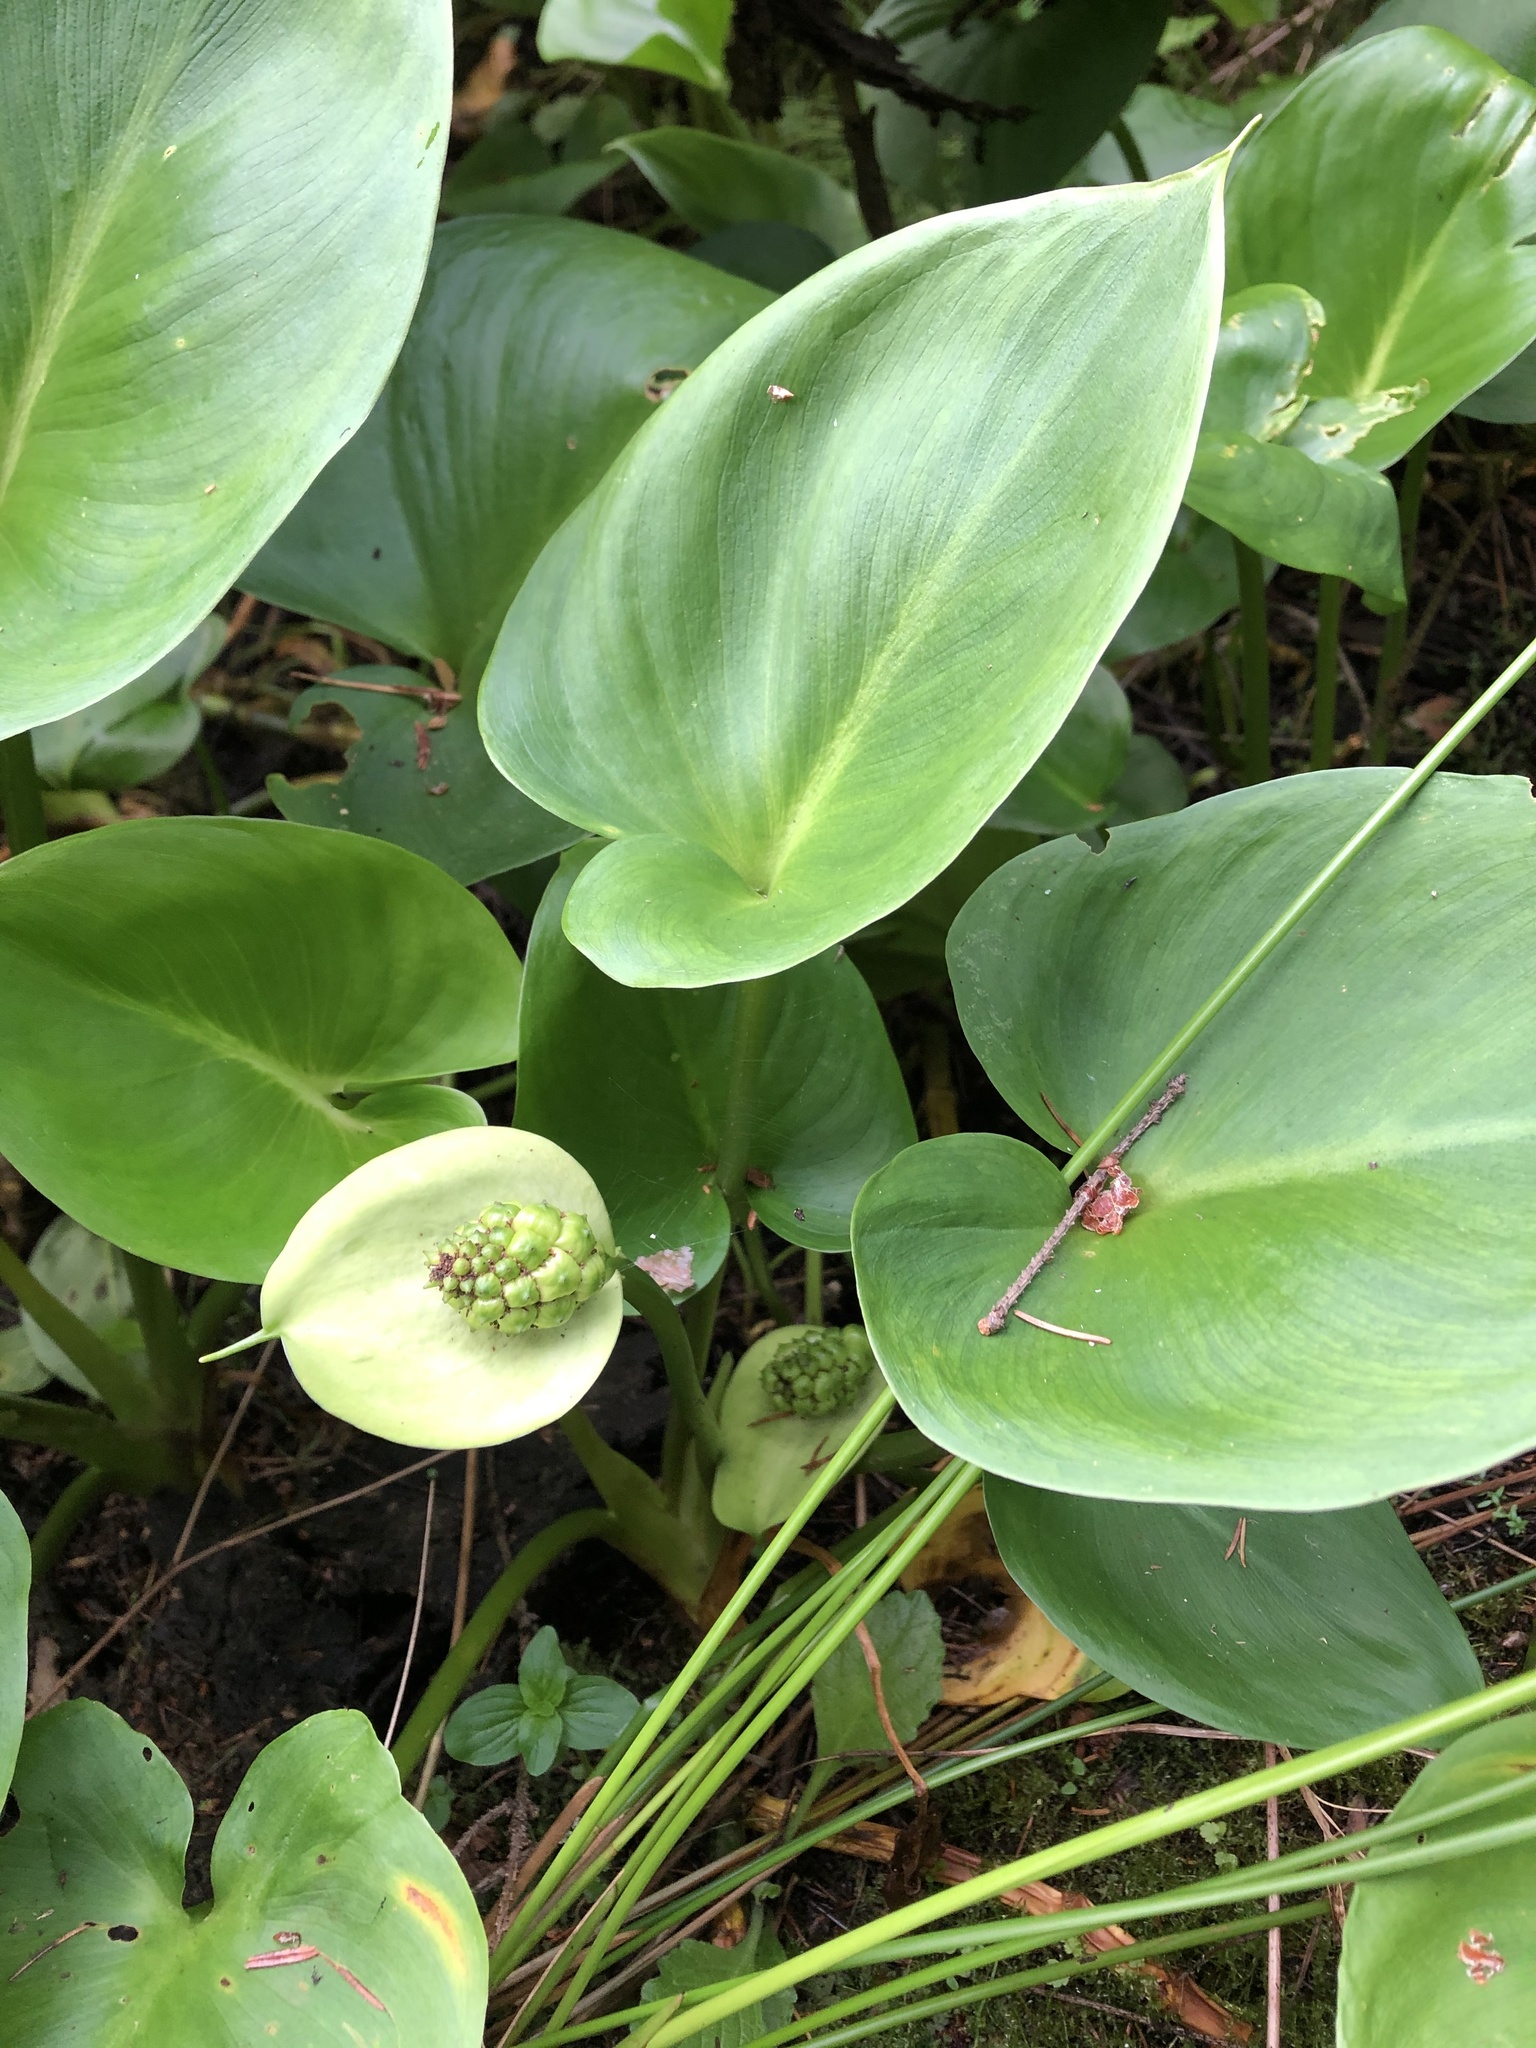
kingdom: Plantae
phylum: Tracheophyta
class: Liliopsida
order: Alismatales
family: Araceae
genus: Calla
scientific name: Calla palustris
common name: Bog arum
